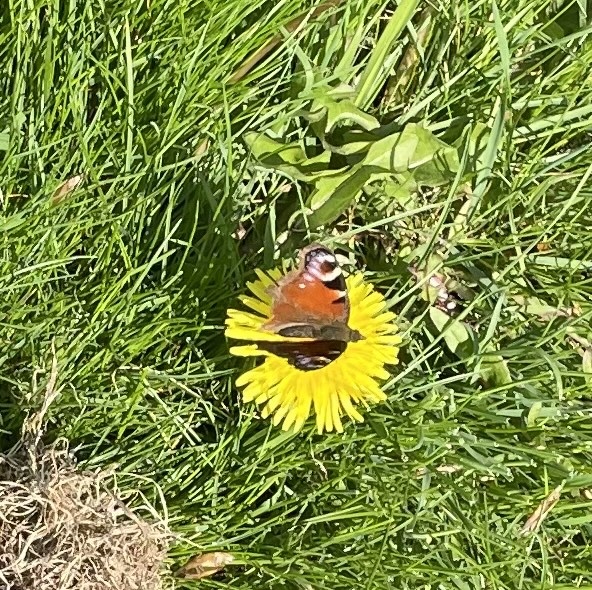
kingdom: Animalia
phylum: Arthropoda
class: Insecta
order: Lepidoptera
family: Nymphalidae
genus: Aglais
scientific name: Aglais io
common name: Peacock
